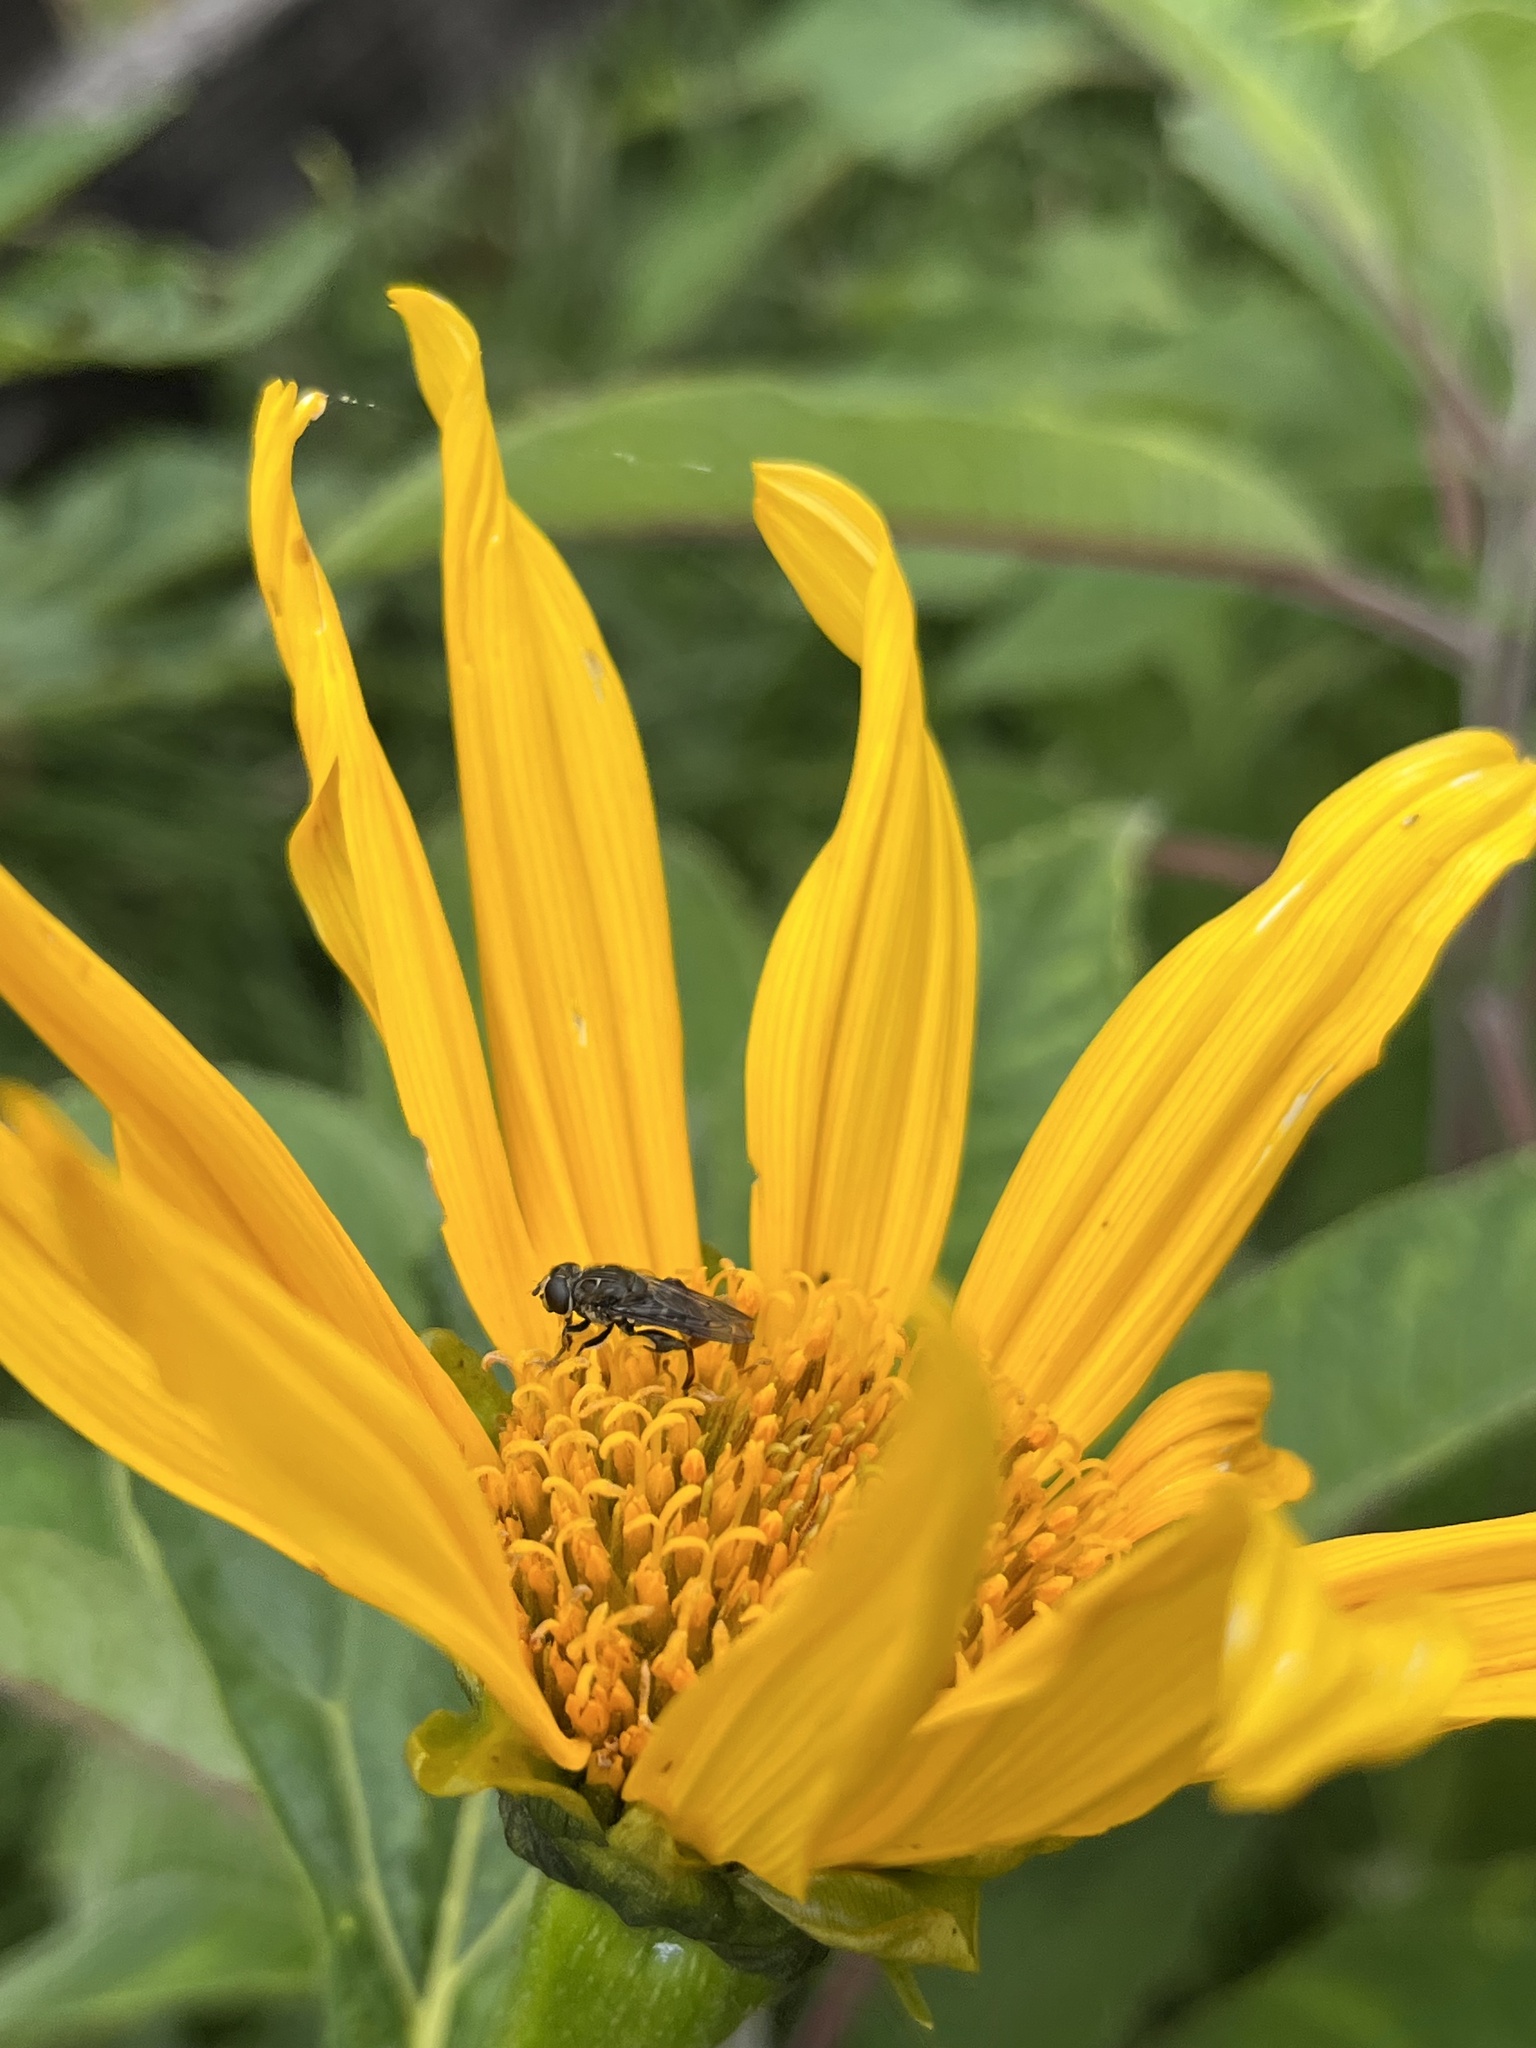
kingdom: Animalia
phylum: Arthropoda
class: Insecta
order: Diptera
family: Syrphidae
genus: Asemosyrphus
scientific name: Asemosyrphus
